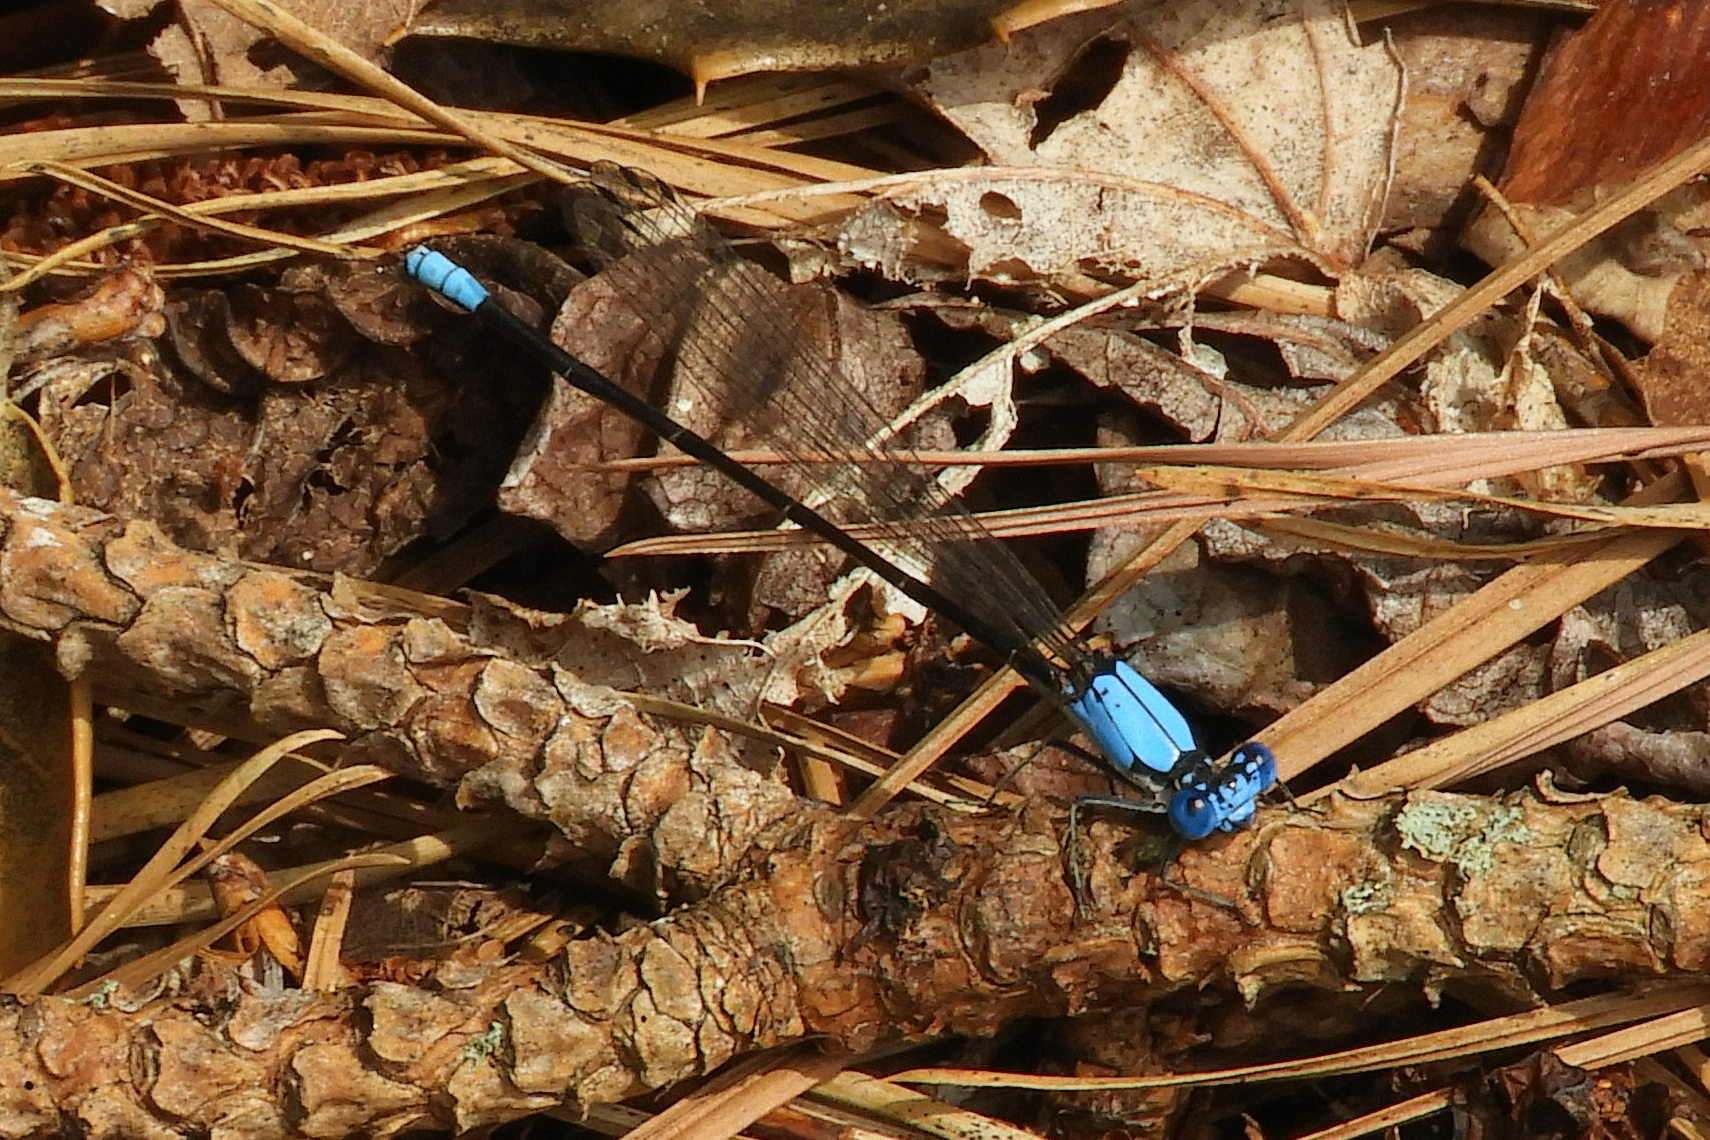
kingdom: Animalia
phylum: Arthropoda
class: Insecta
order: Odonata
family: Coenagrionidae
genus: Argia
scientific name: Argia apicalis
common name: Blue-fronted dancer
